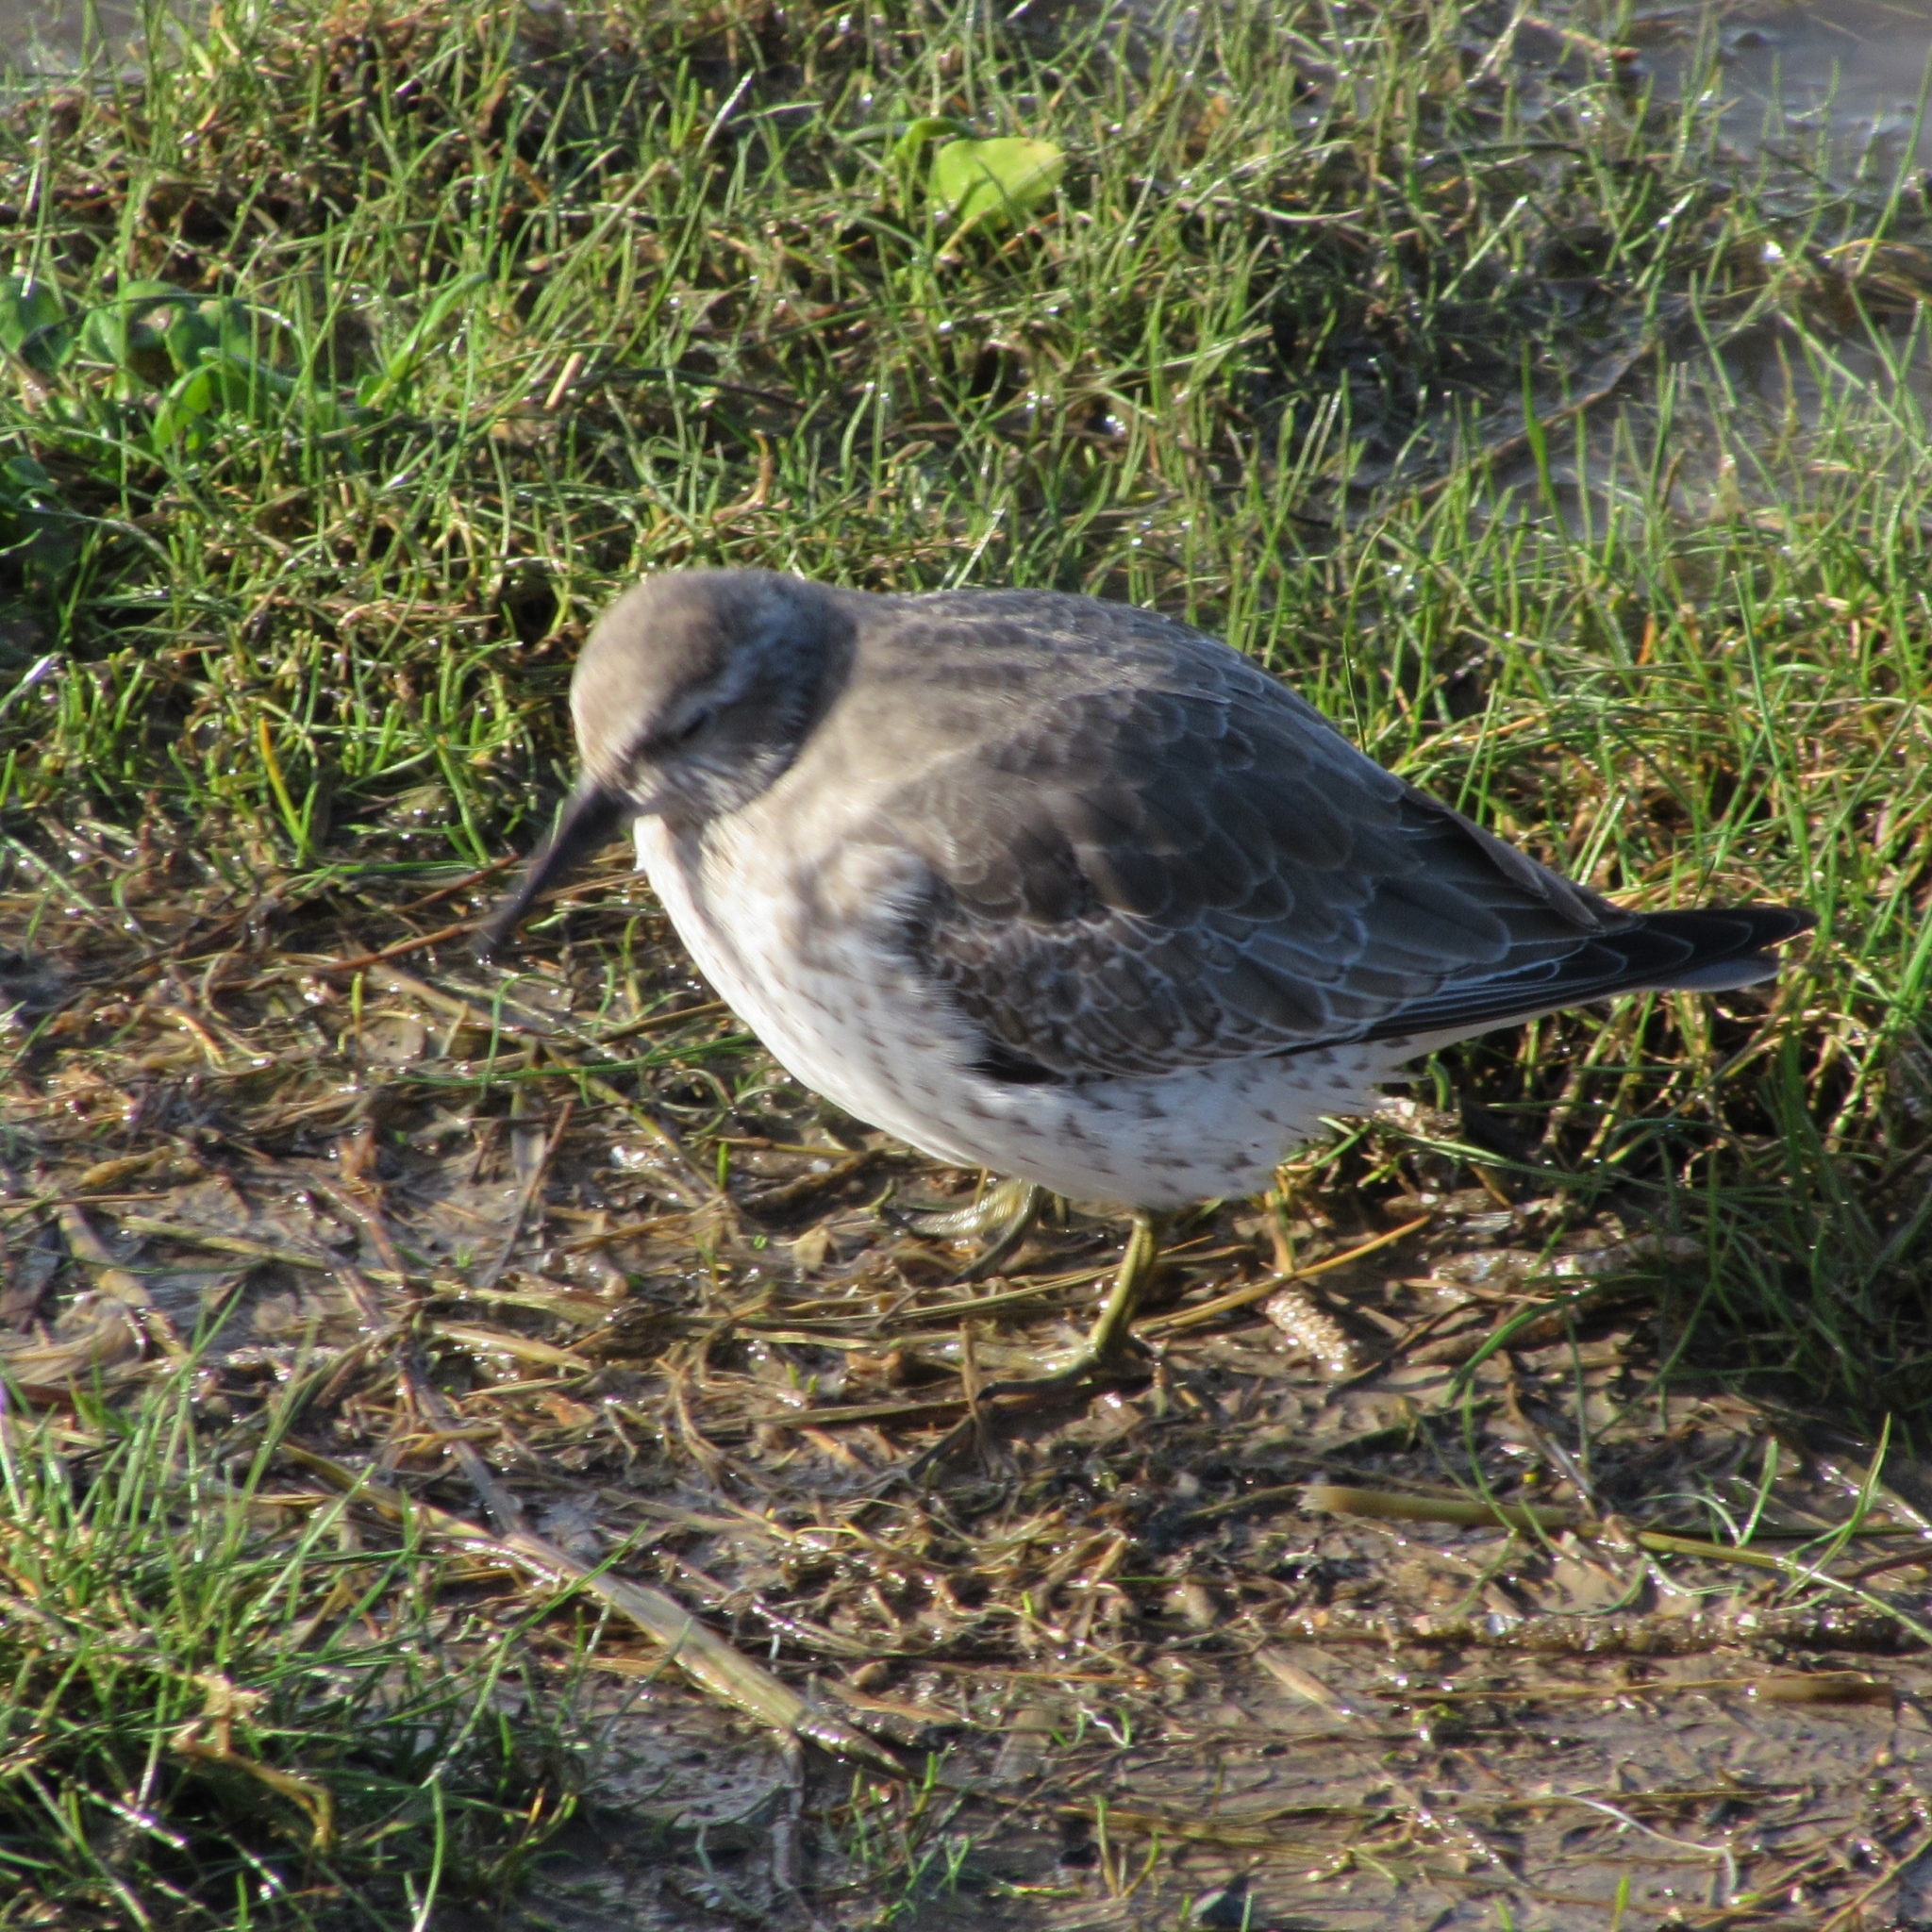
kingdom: Animalia
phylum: Chordata
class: Aves
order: Charadriiformes
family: Scolopacidae
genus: Calidris
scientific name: Calidris canutus
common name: Red knot
